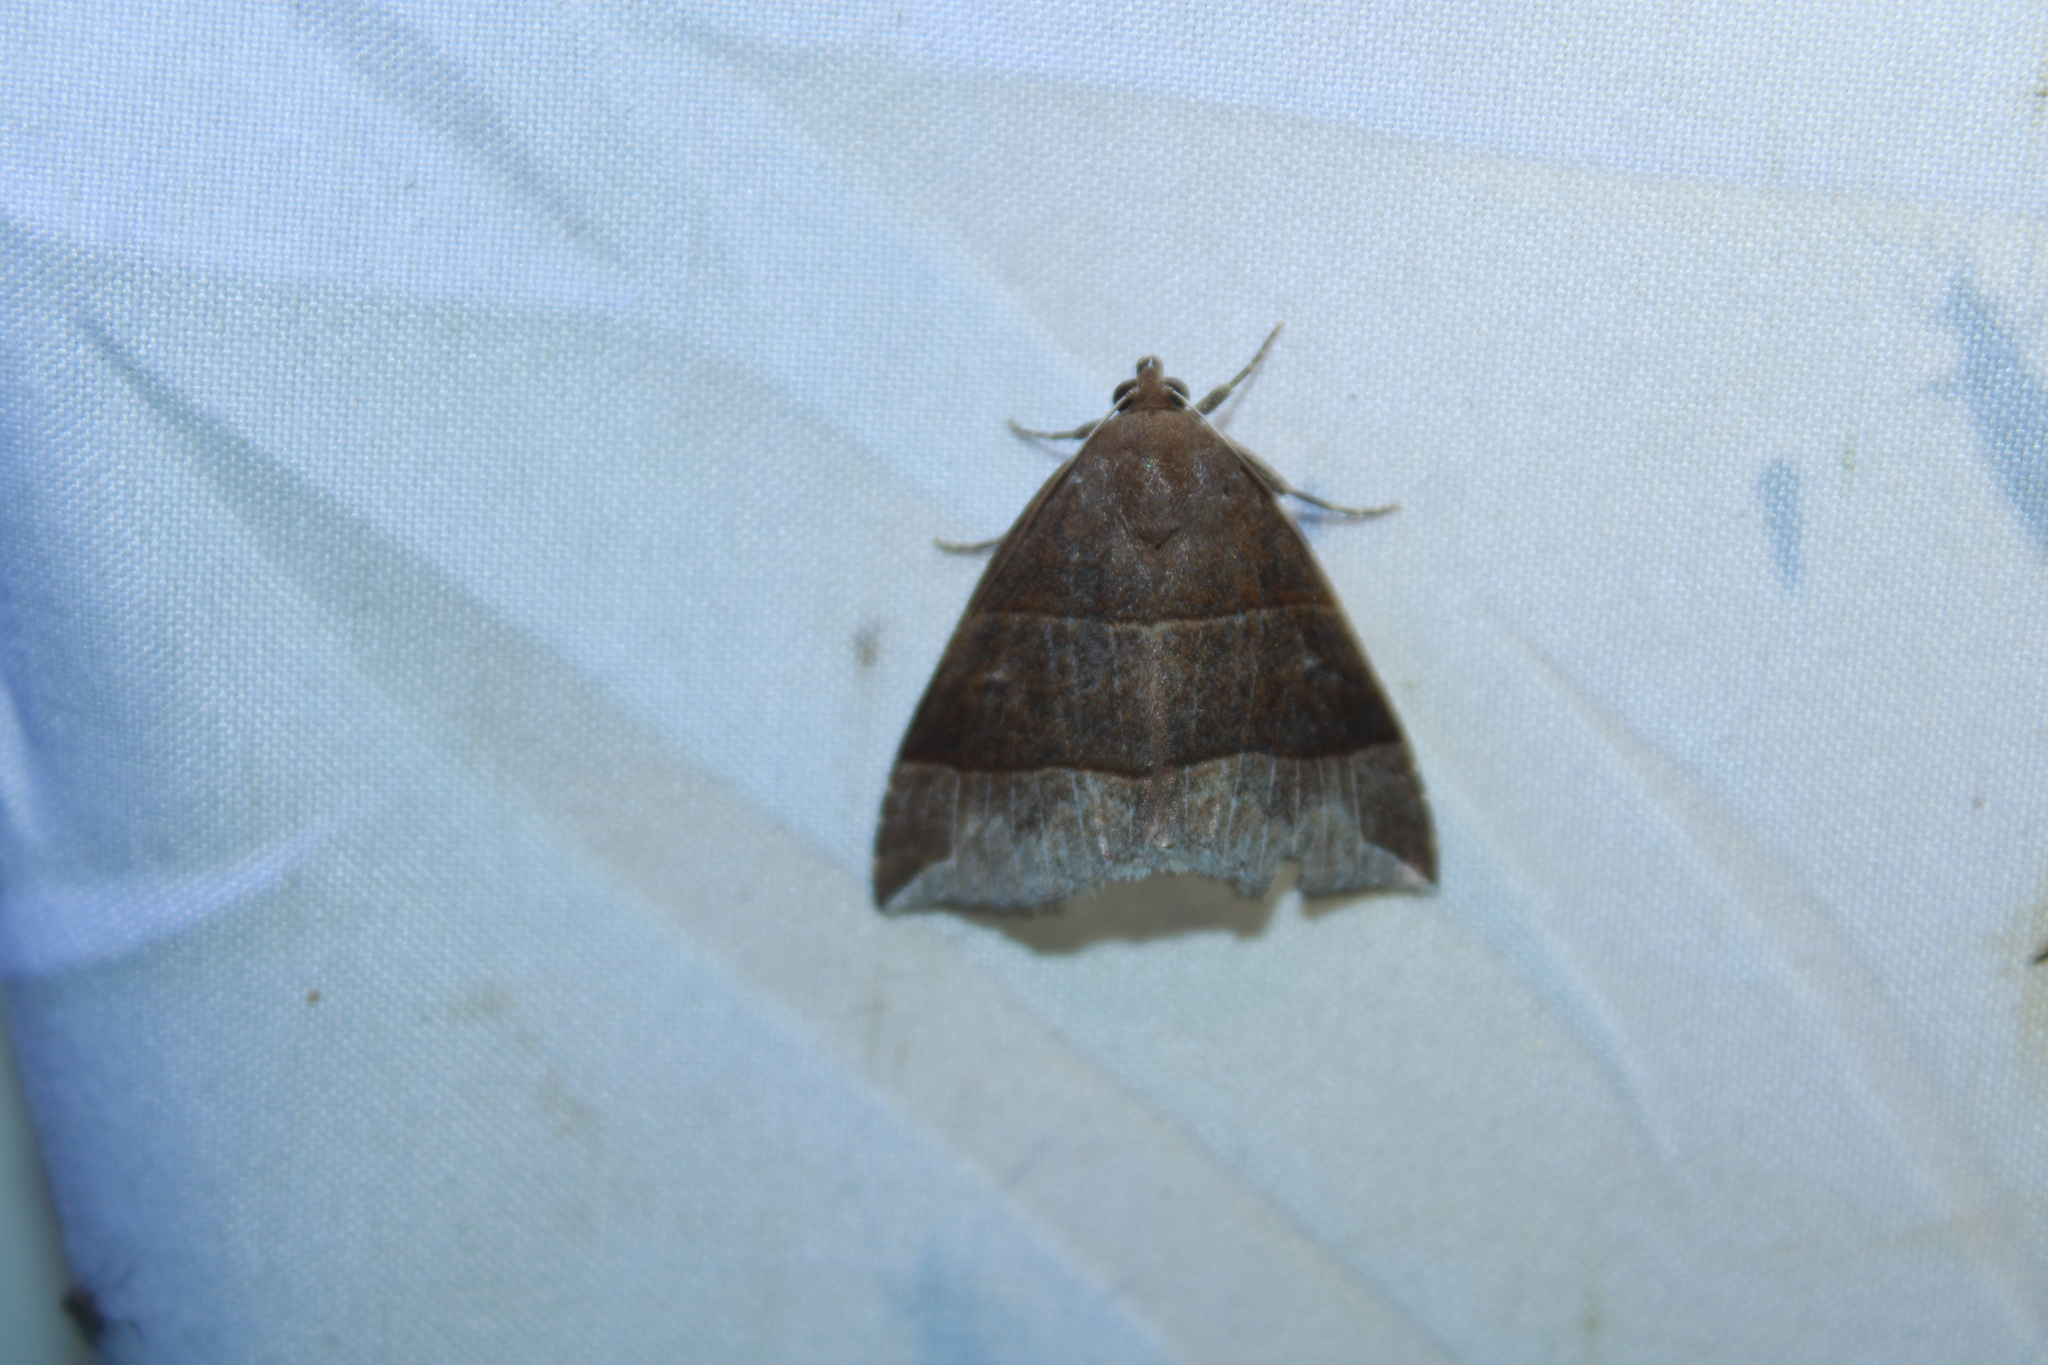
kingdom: Animalia
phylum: Arthropoda
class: Insecta
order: Lepidoptera
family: Erebidae
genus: Parallelia
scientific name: Parallelia bistriaris
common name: Maple looper moth
